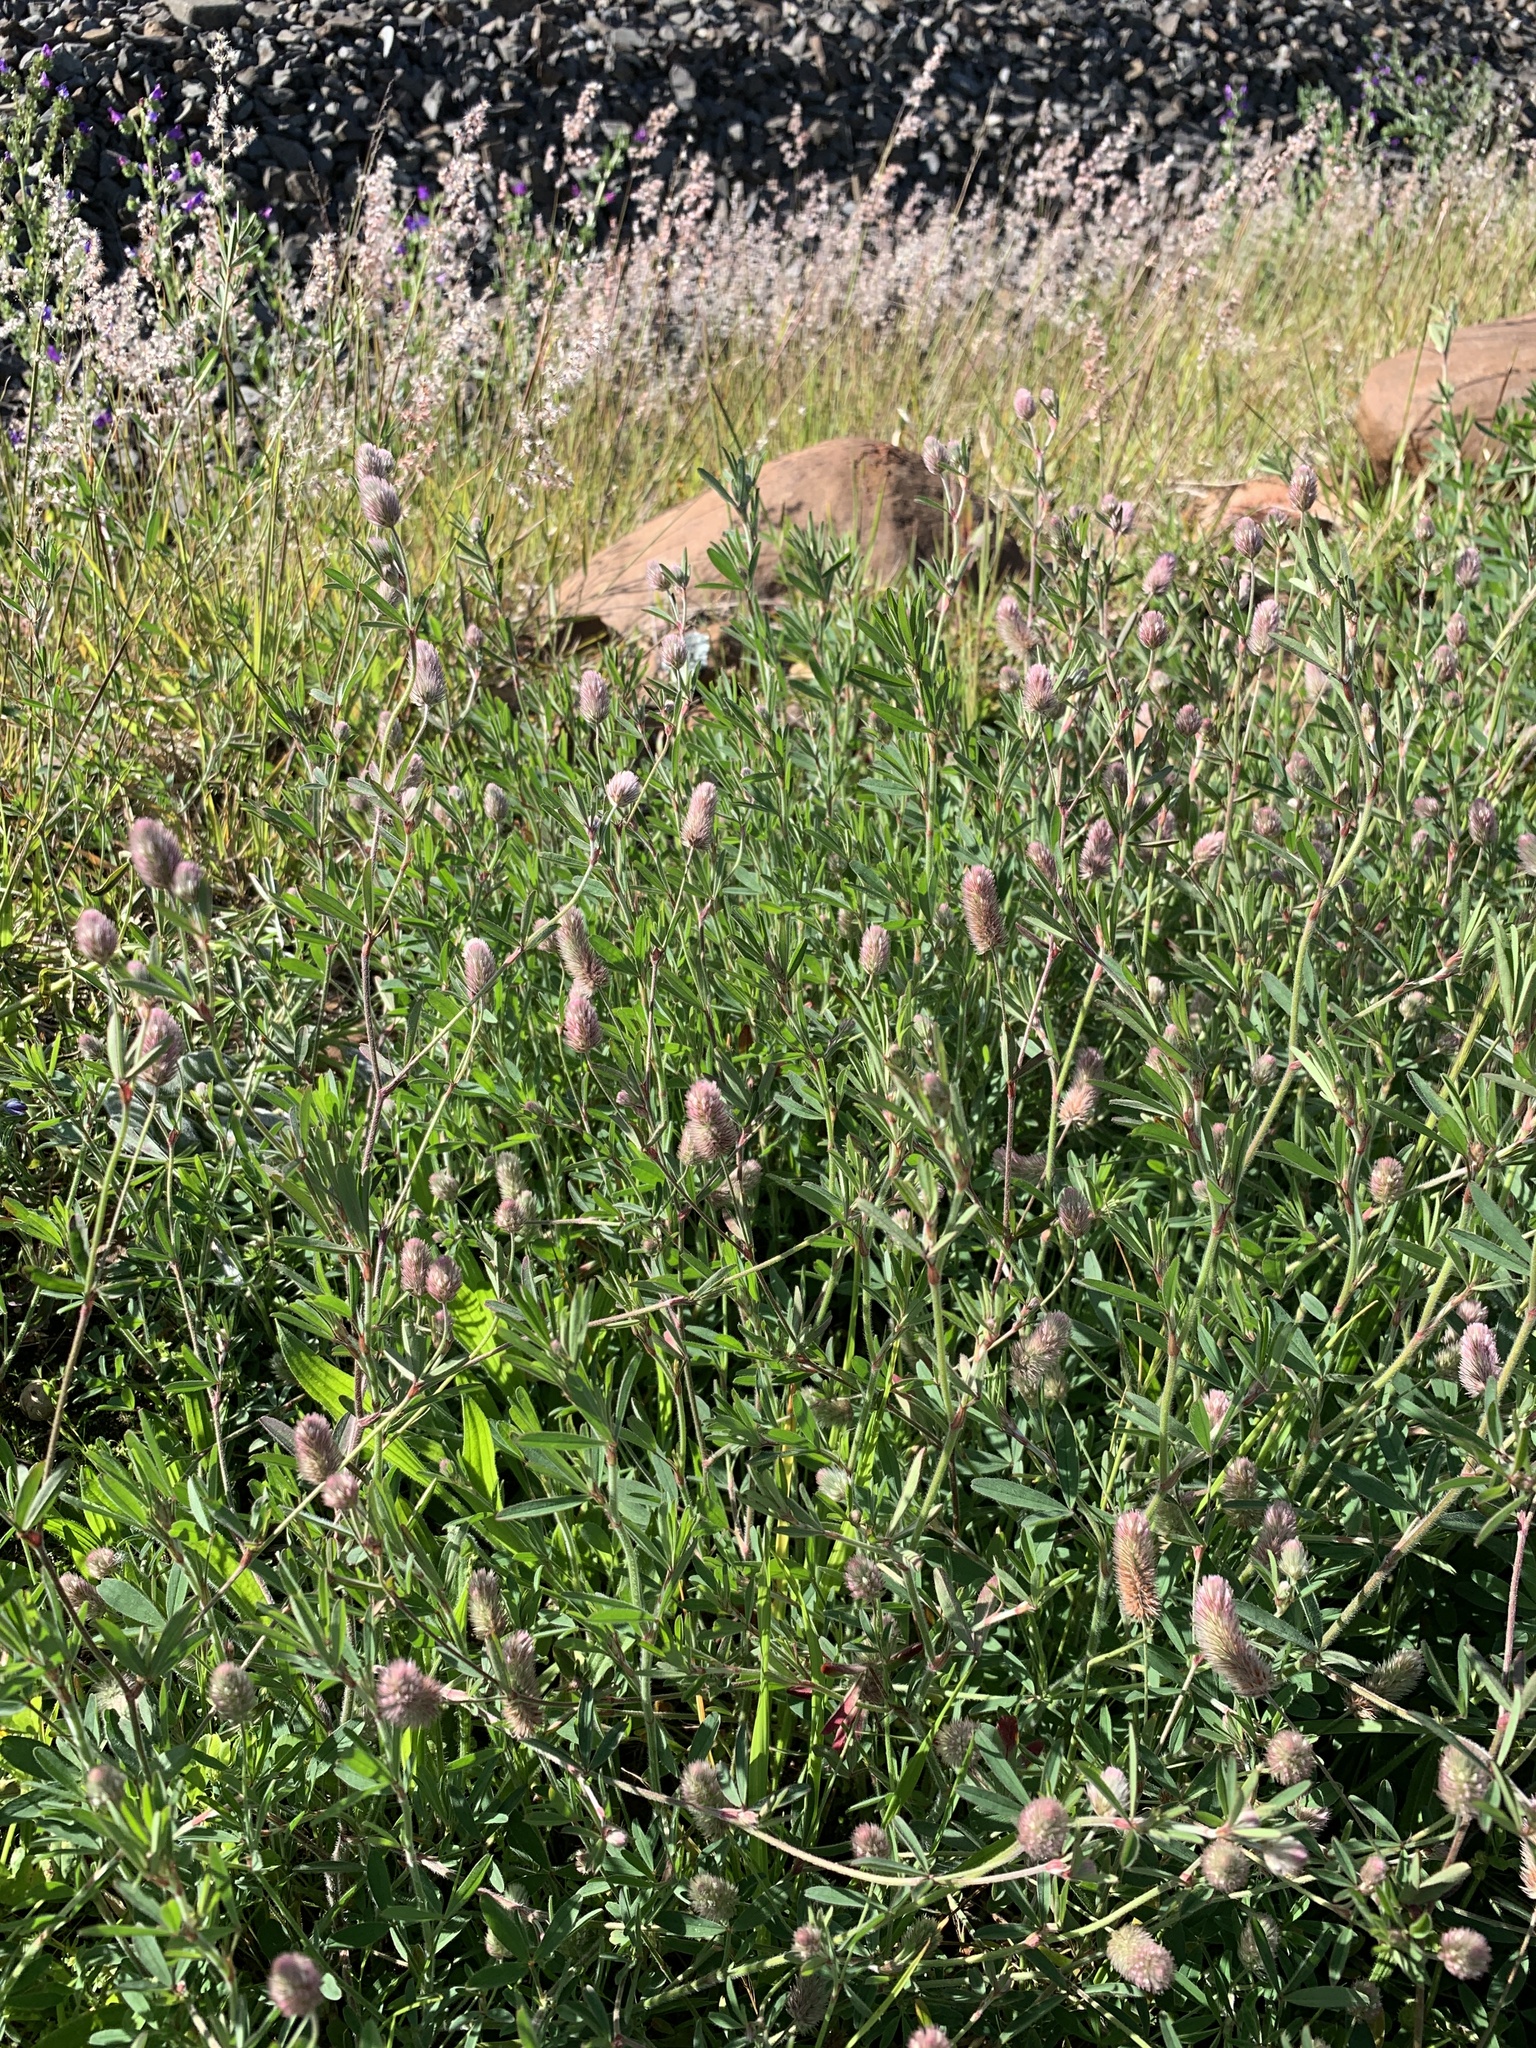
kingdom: Plantae
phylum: Tracheophyta
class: Magnoliopsida
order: Fabales
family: Fabaceae
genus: Trifolium
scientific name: Trifolium arvense
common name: Hare's-foot clover
